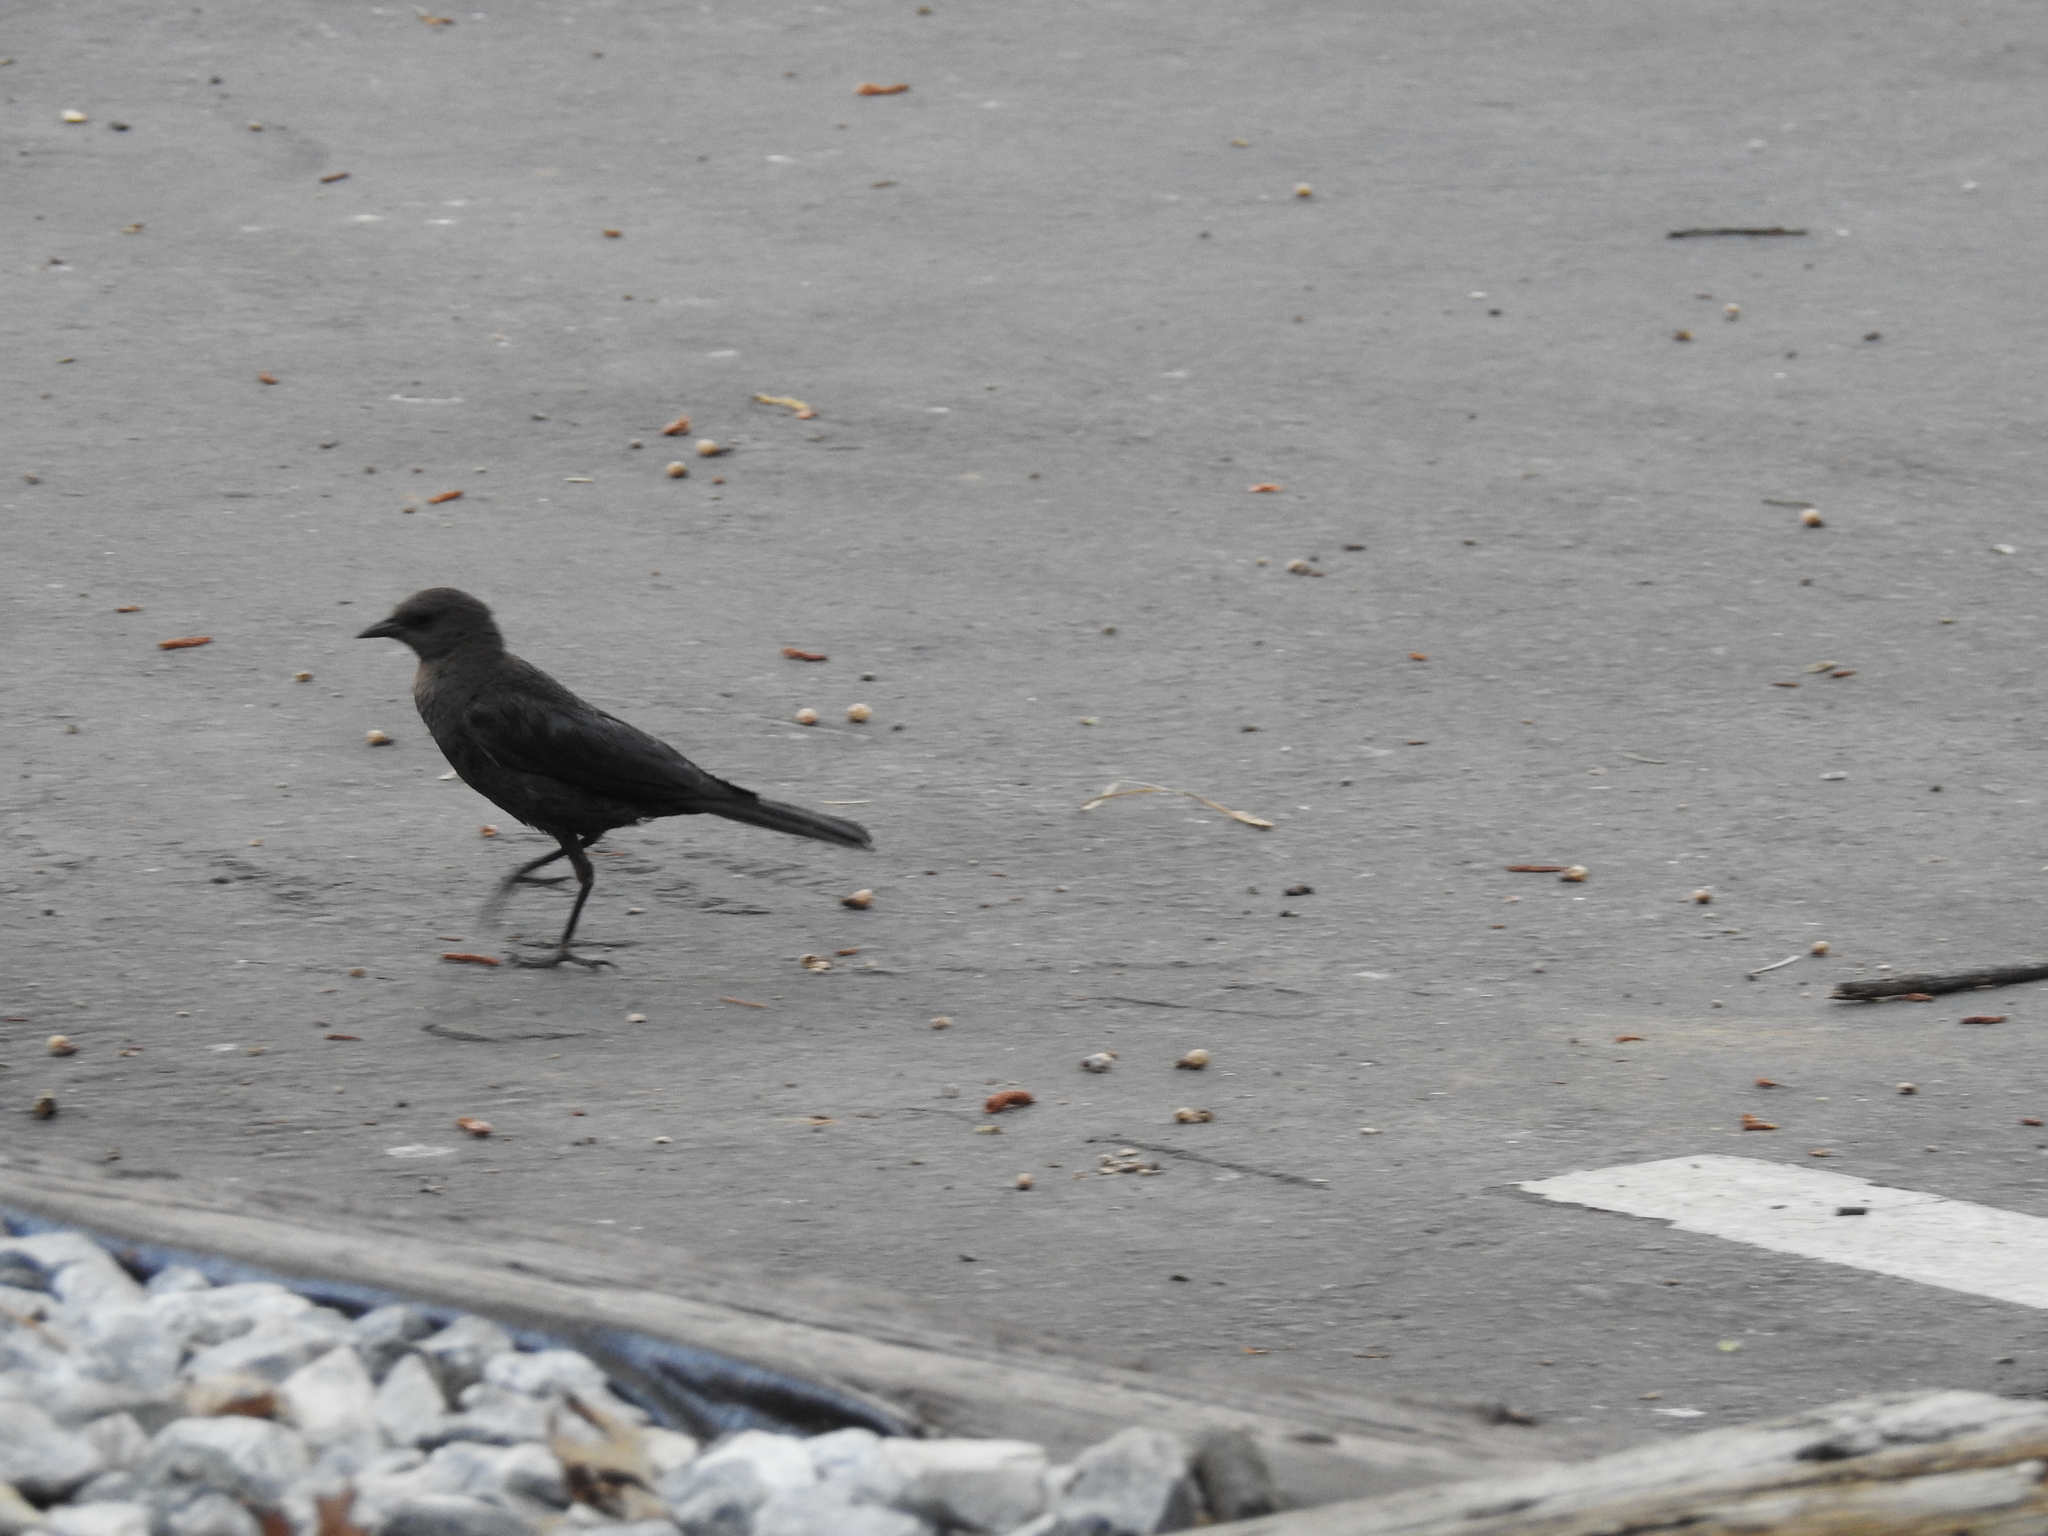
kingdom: Animalia
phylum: Chordata
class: Aves
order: Passeriformes
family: Icteridae
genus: Euphagus
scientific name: Euphagus cyanocephalus
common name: Brewer's blackbird
